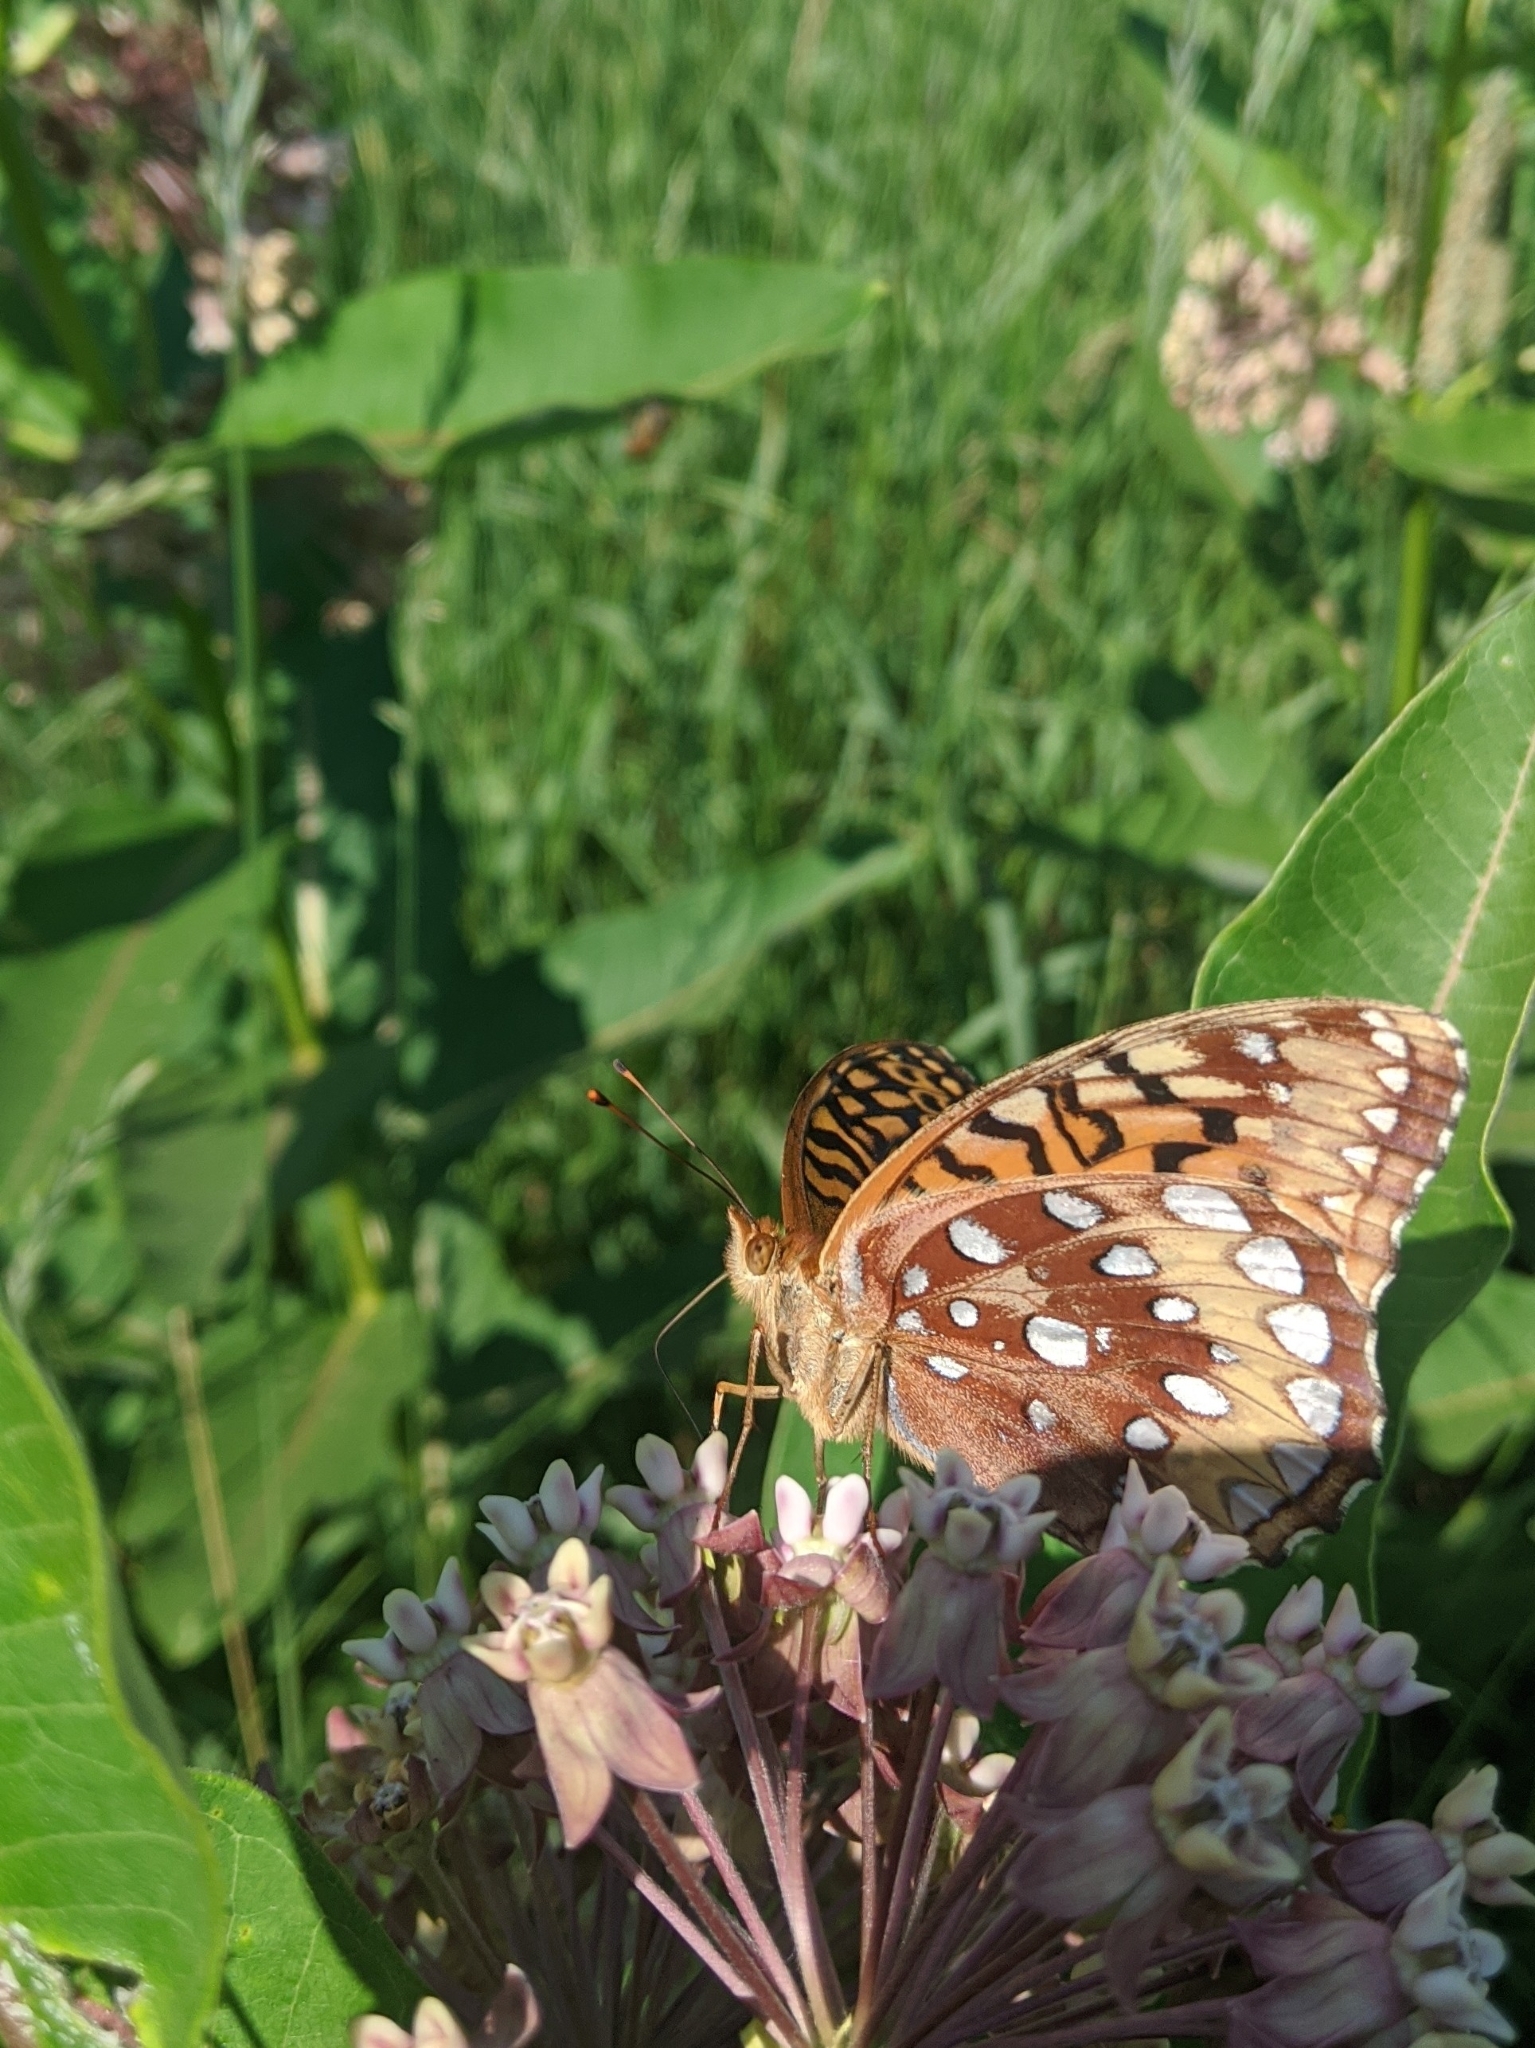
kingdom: Animalia
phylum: Arthropoda
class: Insecta
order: Lepidoptera
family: Nymphalidae
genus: Speyeria
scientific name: Speyeria cybele
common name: Great spangled fritillary
